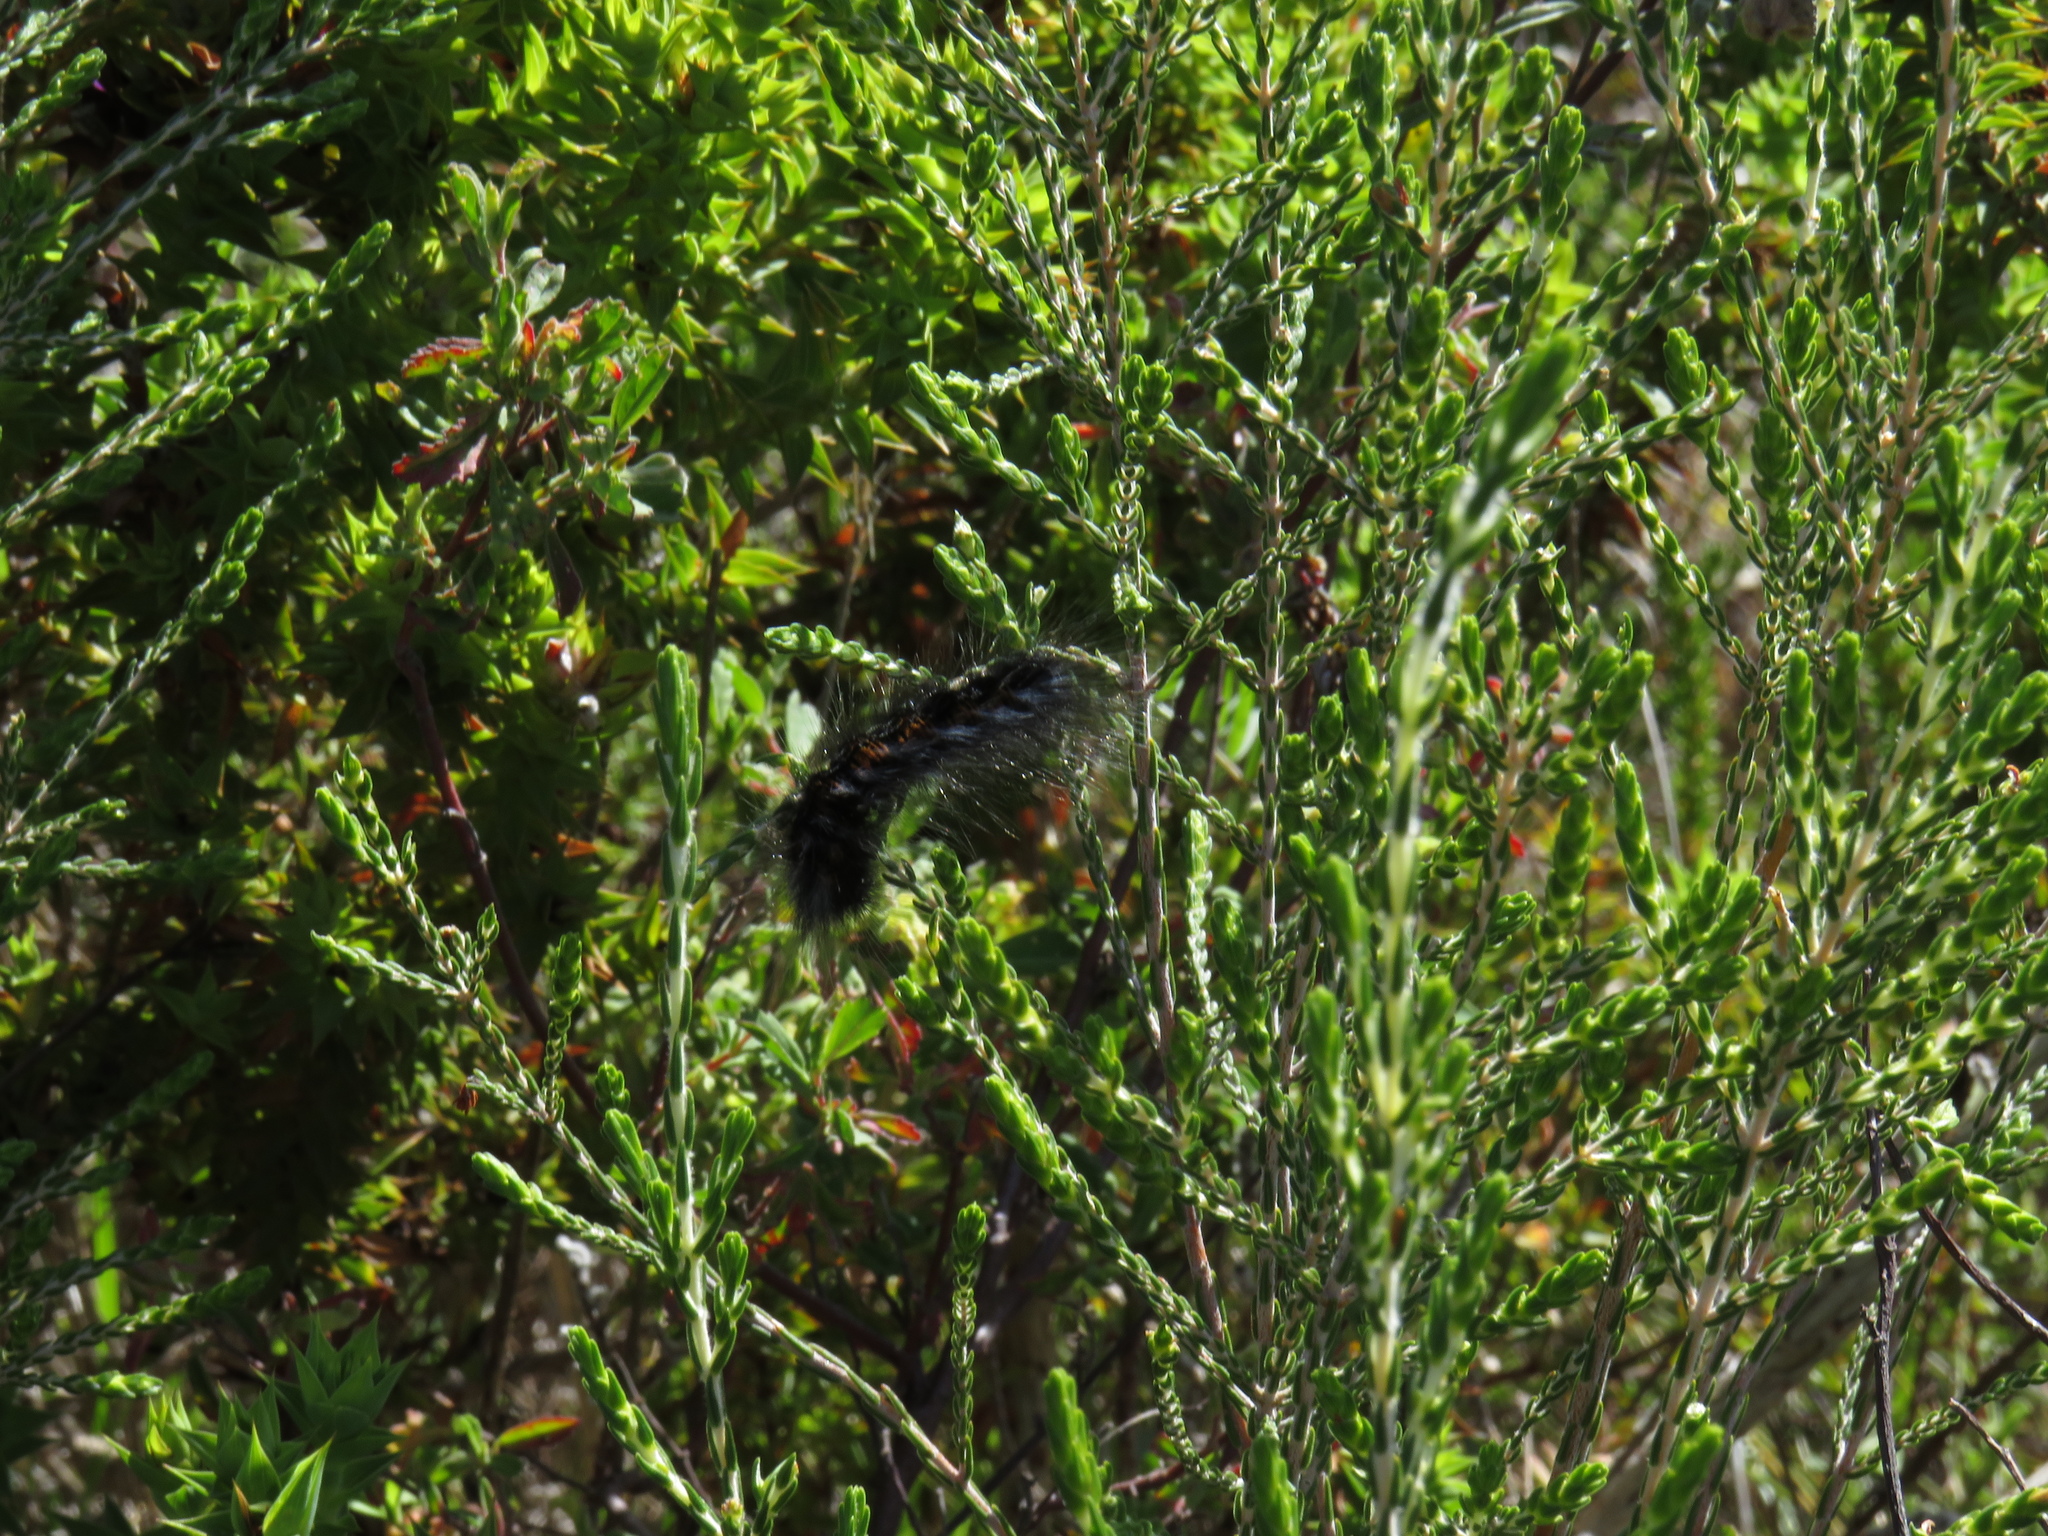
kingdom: Animalia
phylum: Arthropoda
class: Insecta
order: Lepidoptera
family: Lasiocampidae
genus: Mesocelis
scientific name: Mesocelis monticola
